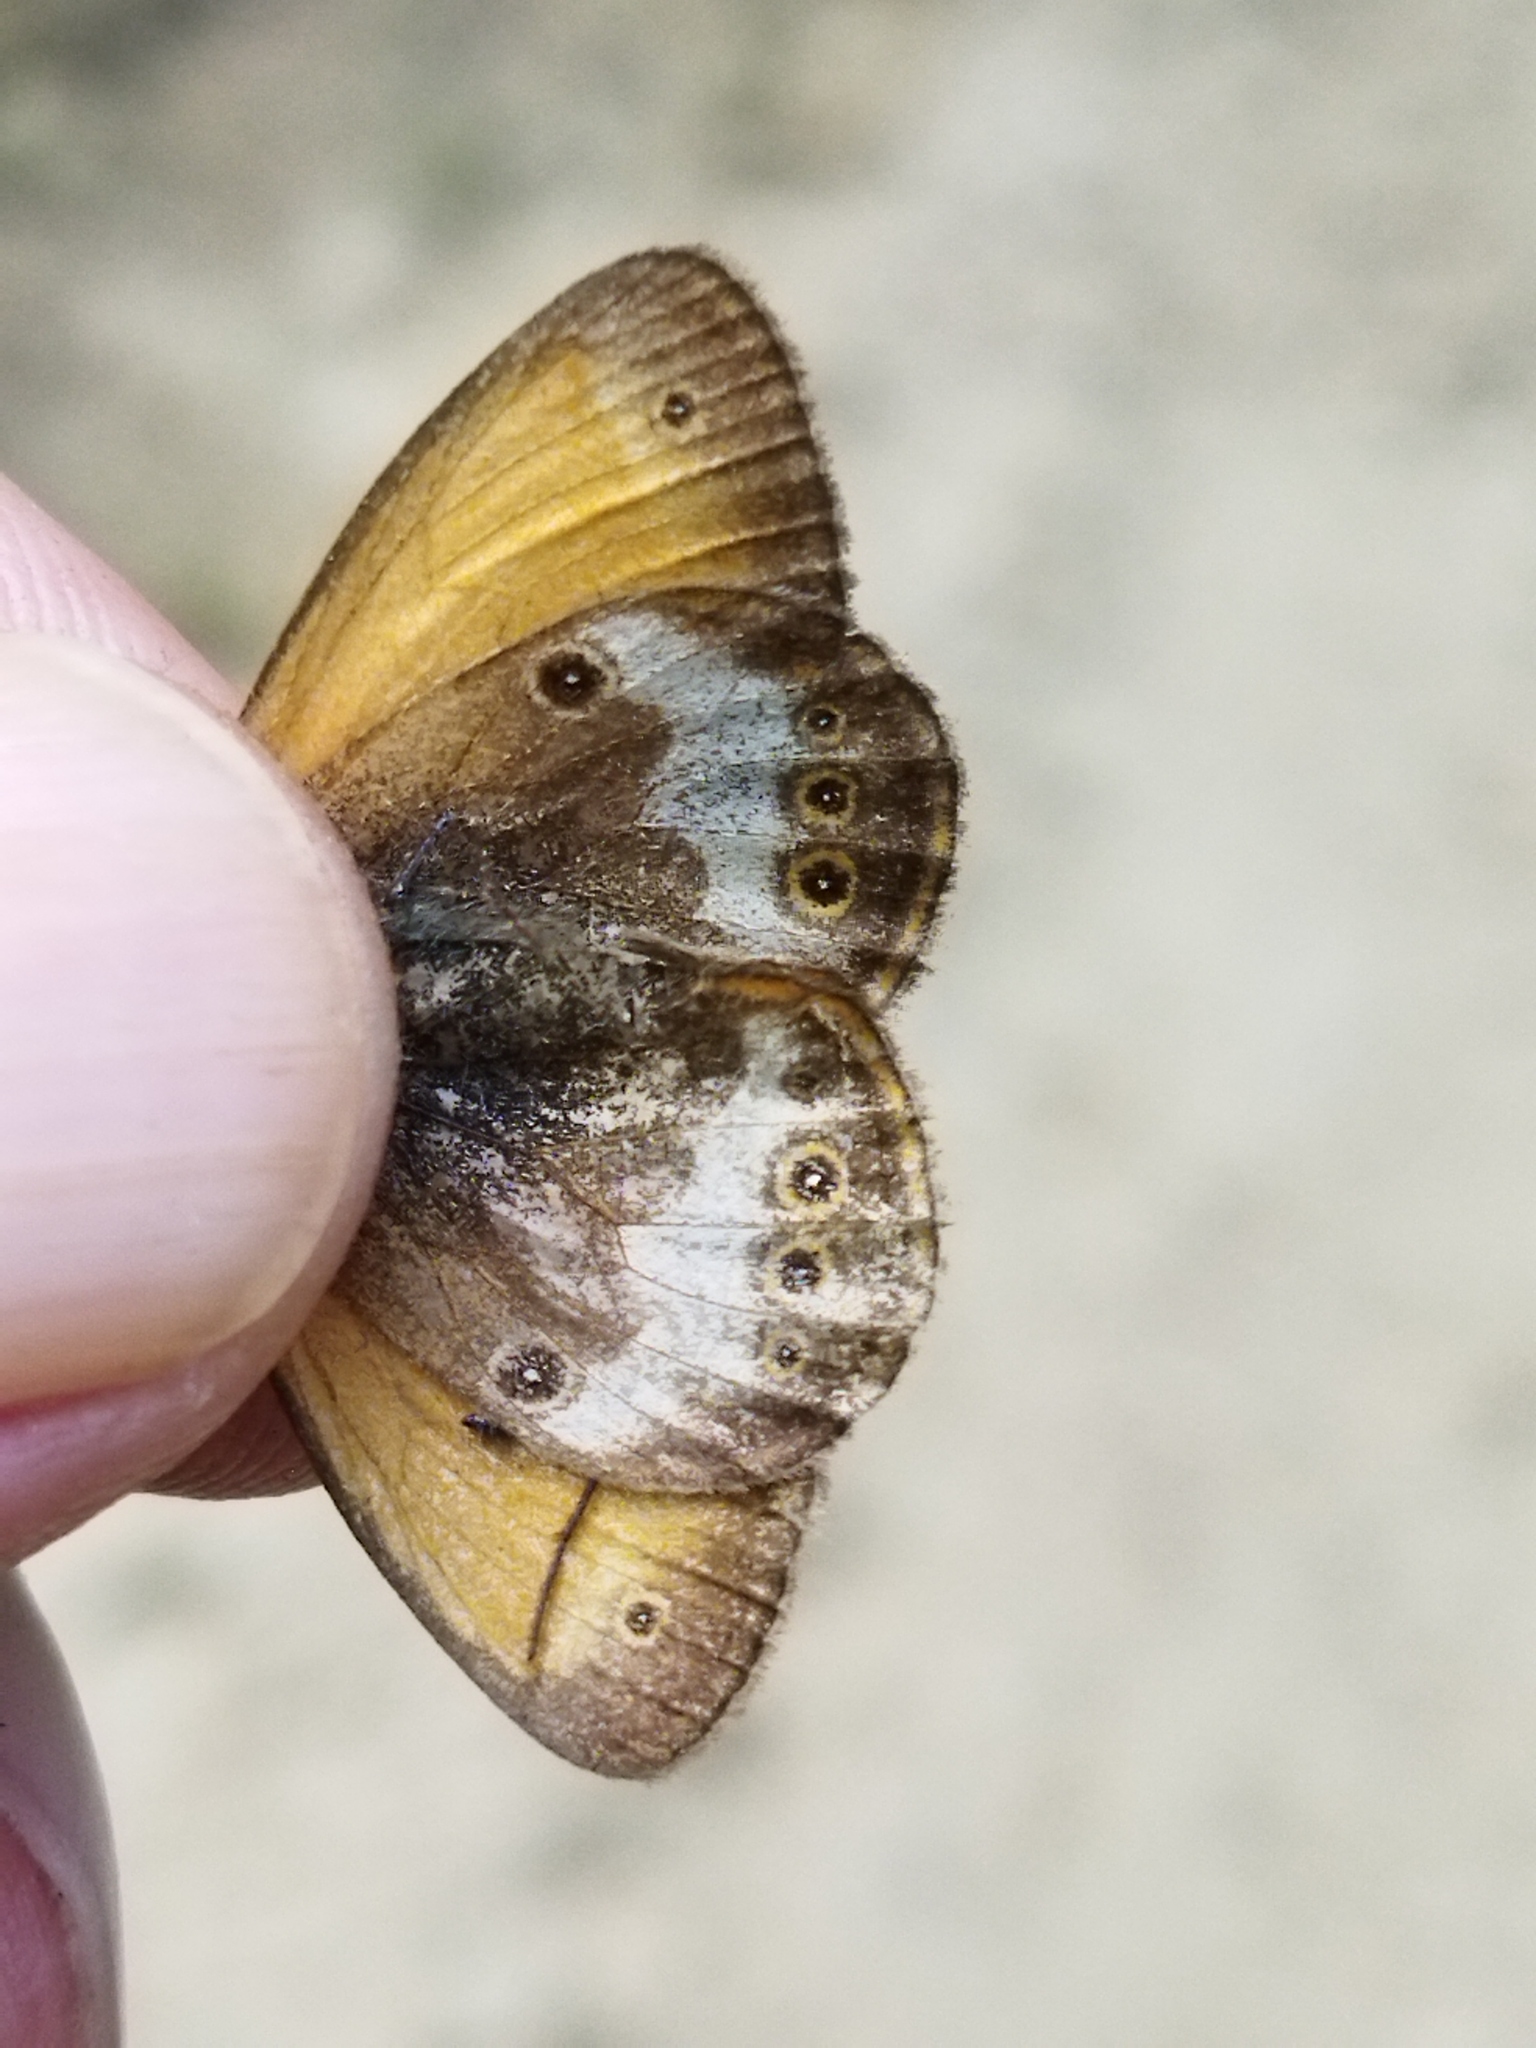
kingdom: Animalia
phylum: Arthropoda
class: Insecta
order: Lepidoptera
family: Nymphalidae
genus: Coenonympha
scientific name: Coenonympha arcania
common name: Pearly heath
